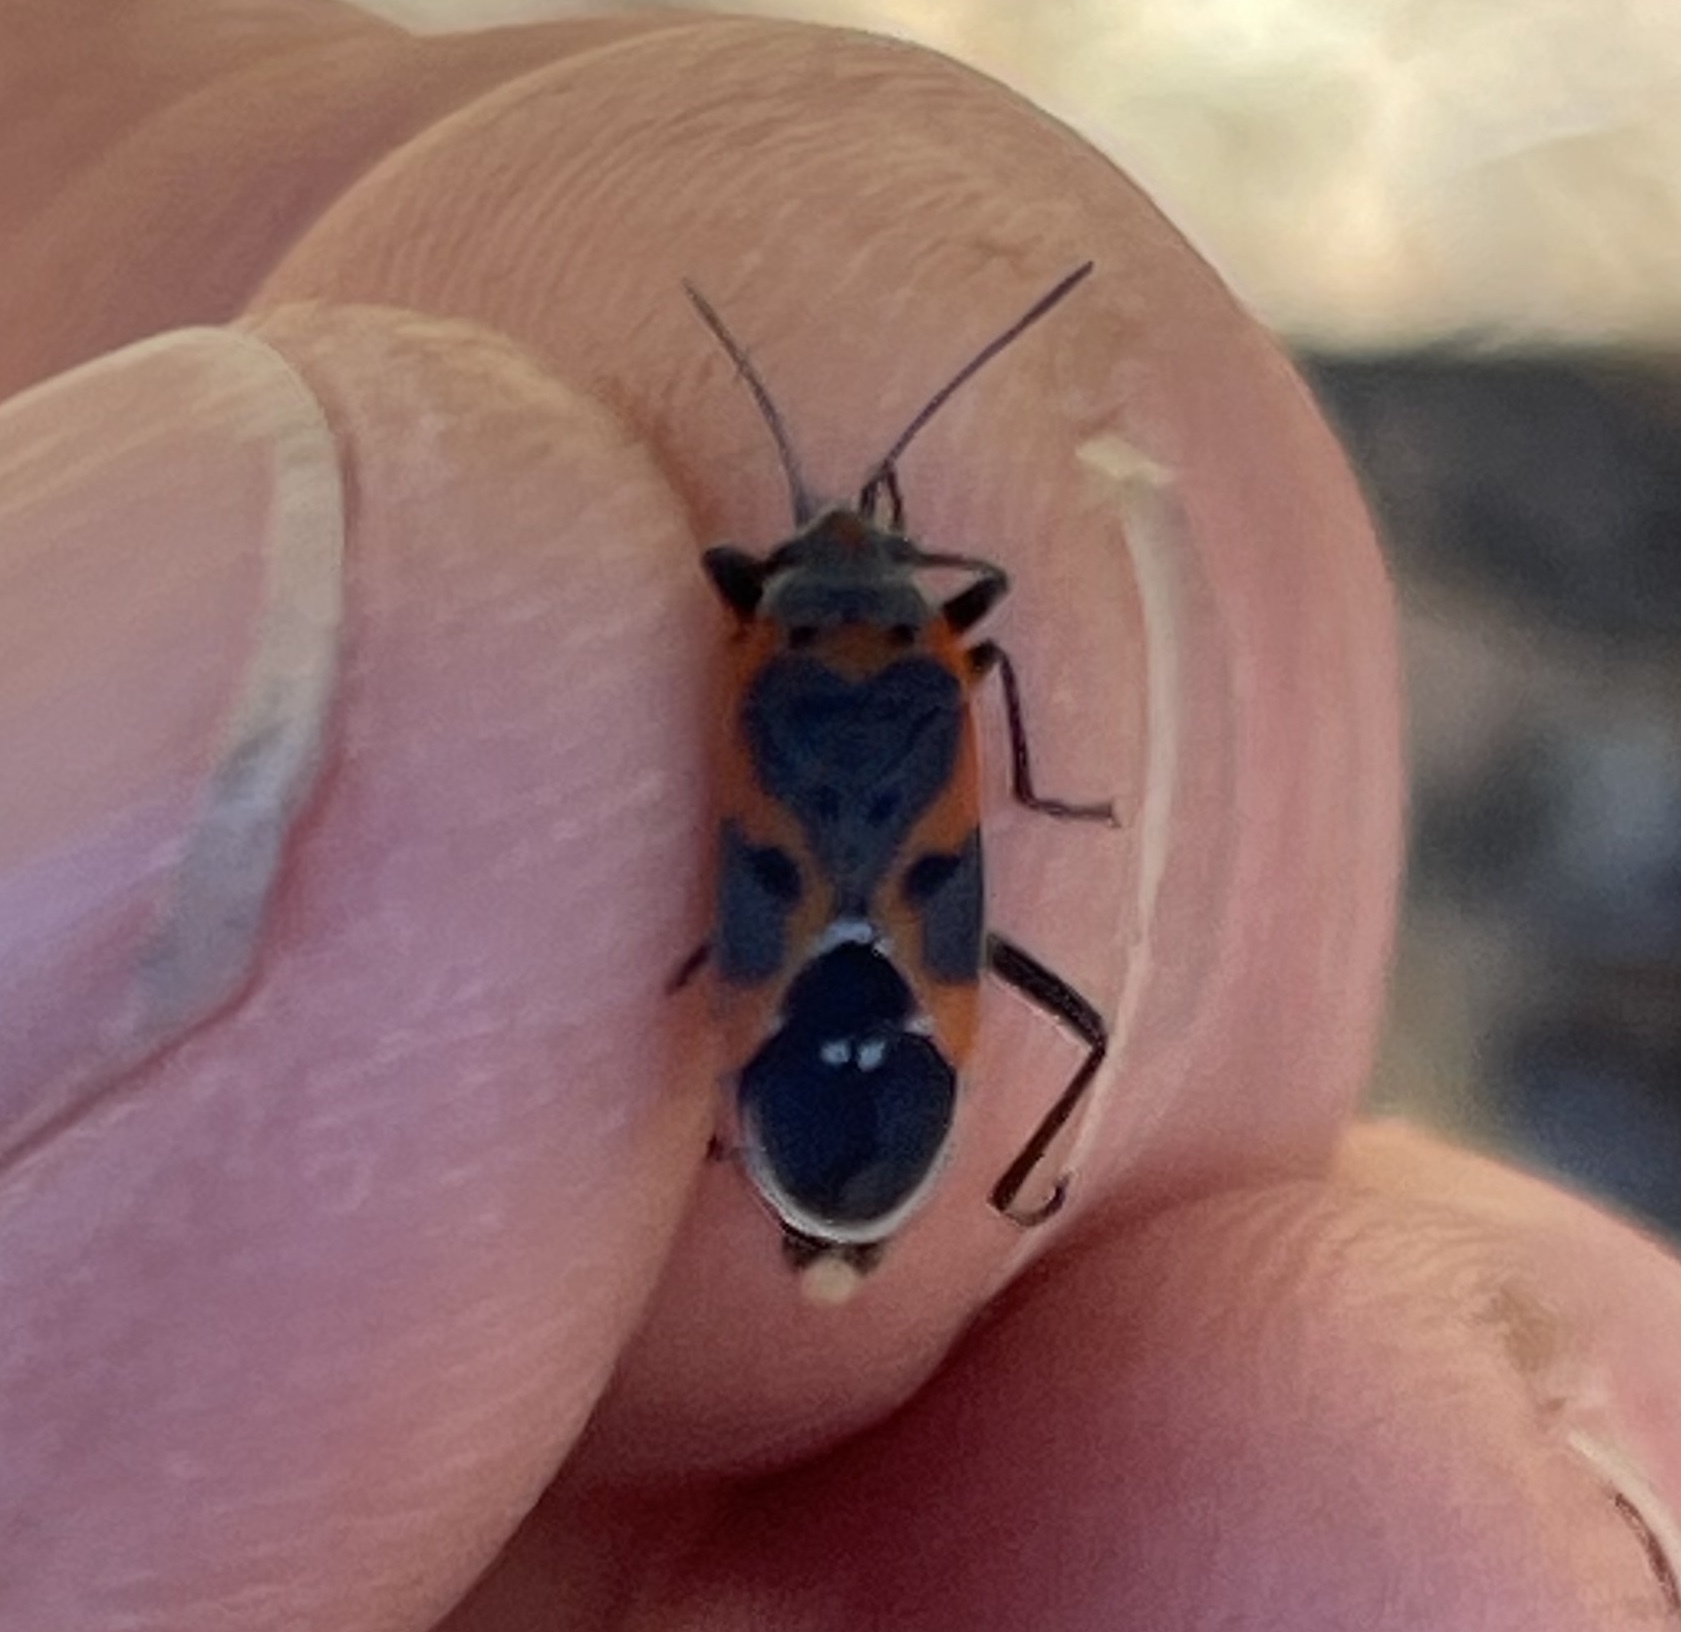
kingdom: Animalia
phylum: Arthropoda
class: Insecta
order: Hemiptera
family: Lygaeidae
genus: Lygaeus
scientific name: Lygaeus kalmii
